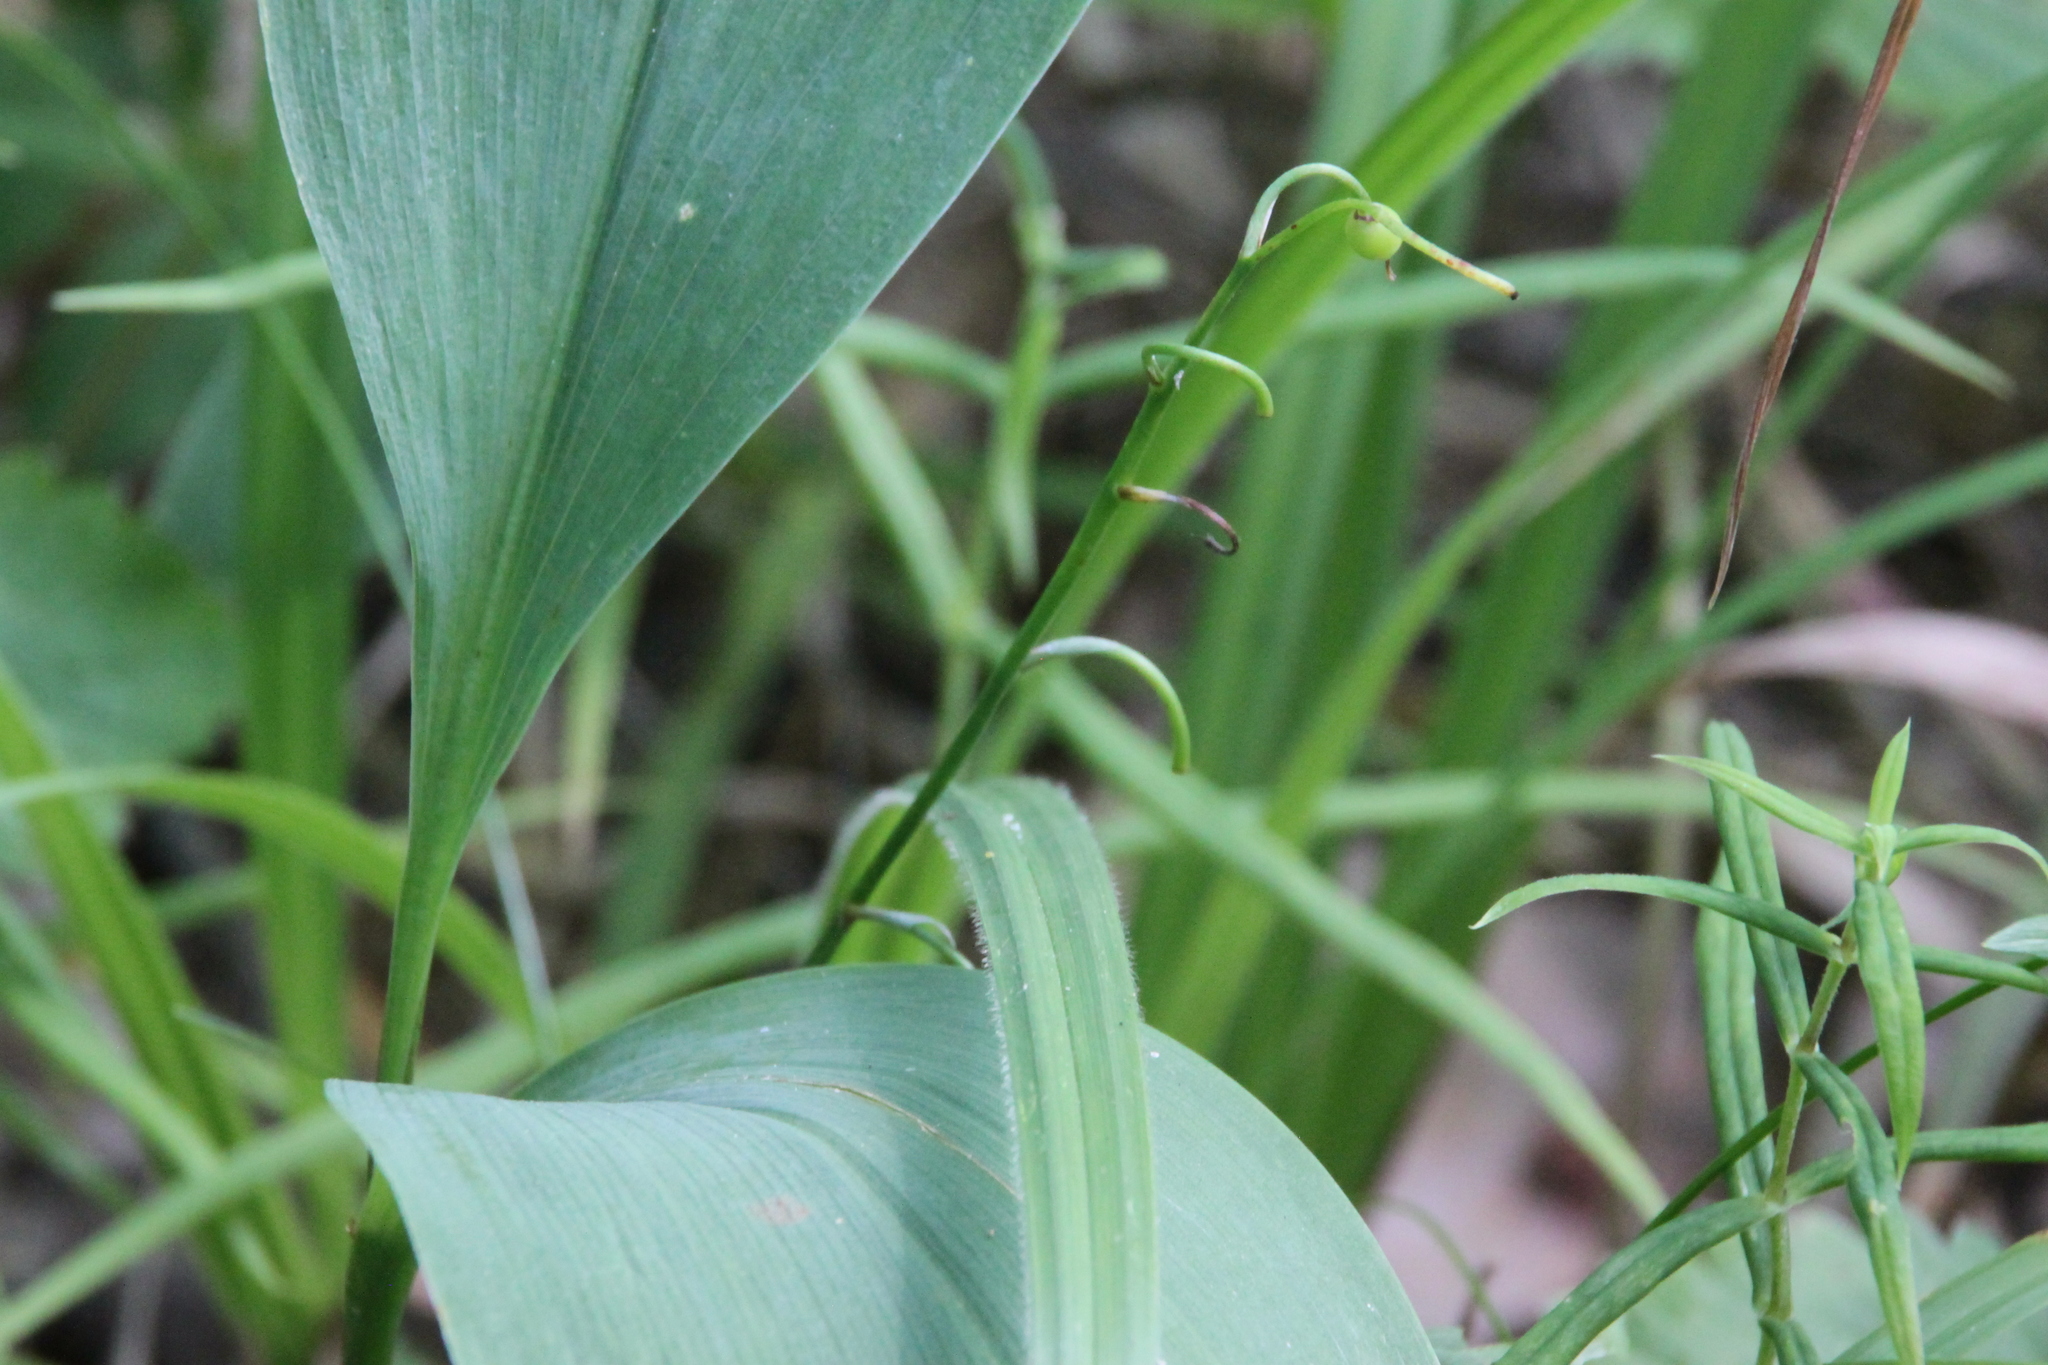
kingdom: Plantae
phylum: Tracheophyta
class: Liliopsida
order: Asparagales
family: Asparagaceae
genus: Convallaria
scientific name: Convallaria majalis
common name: Lily-of-the-valley
